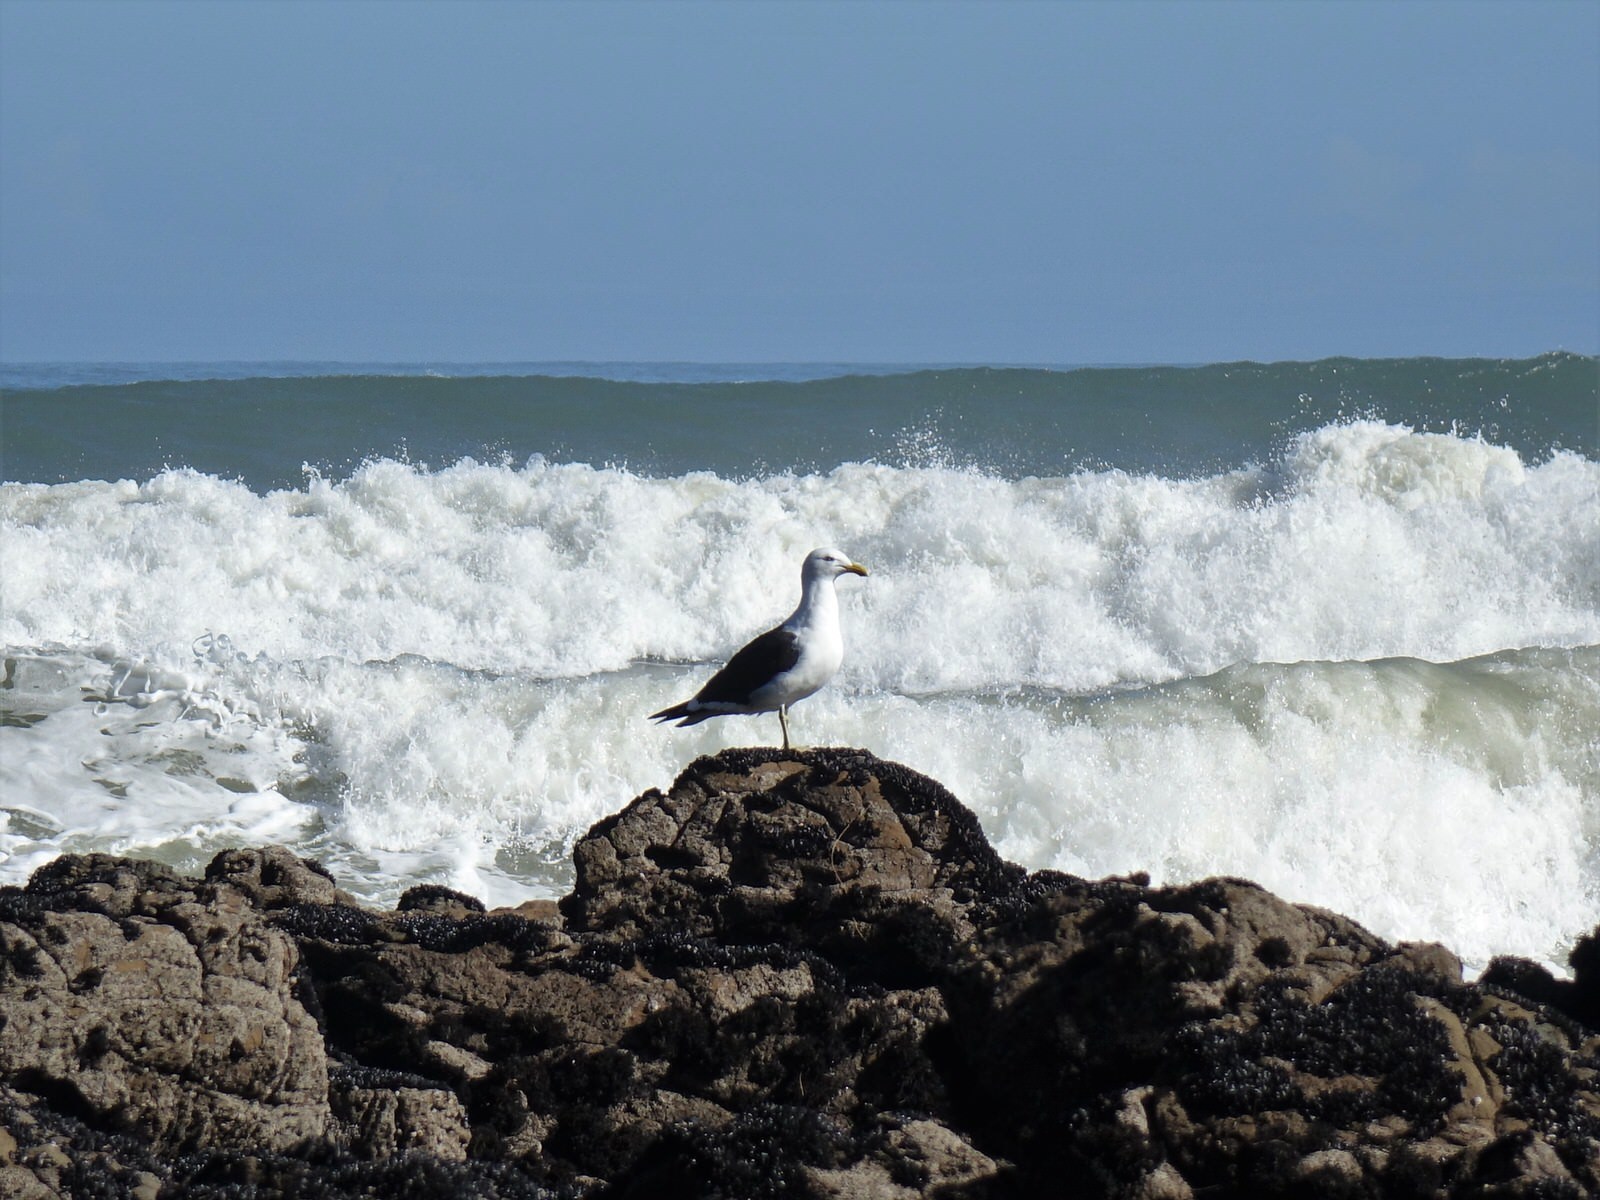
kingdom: Animalia
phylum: Chordata
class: Aves
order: Charadriiformes
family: Laridae
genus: Larus
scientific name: Larus dominicanus
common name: Kelp gull
